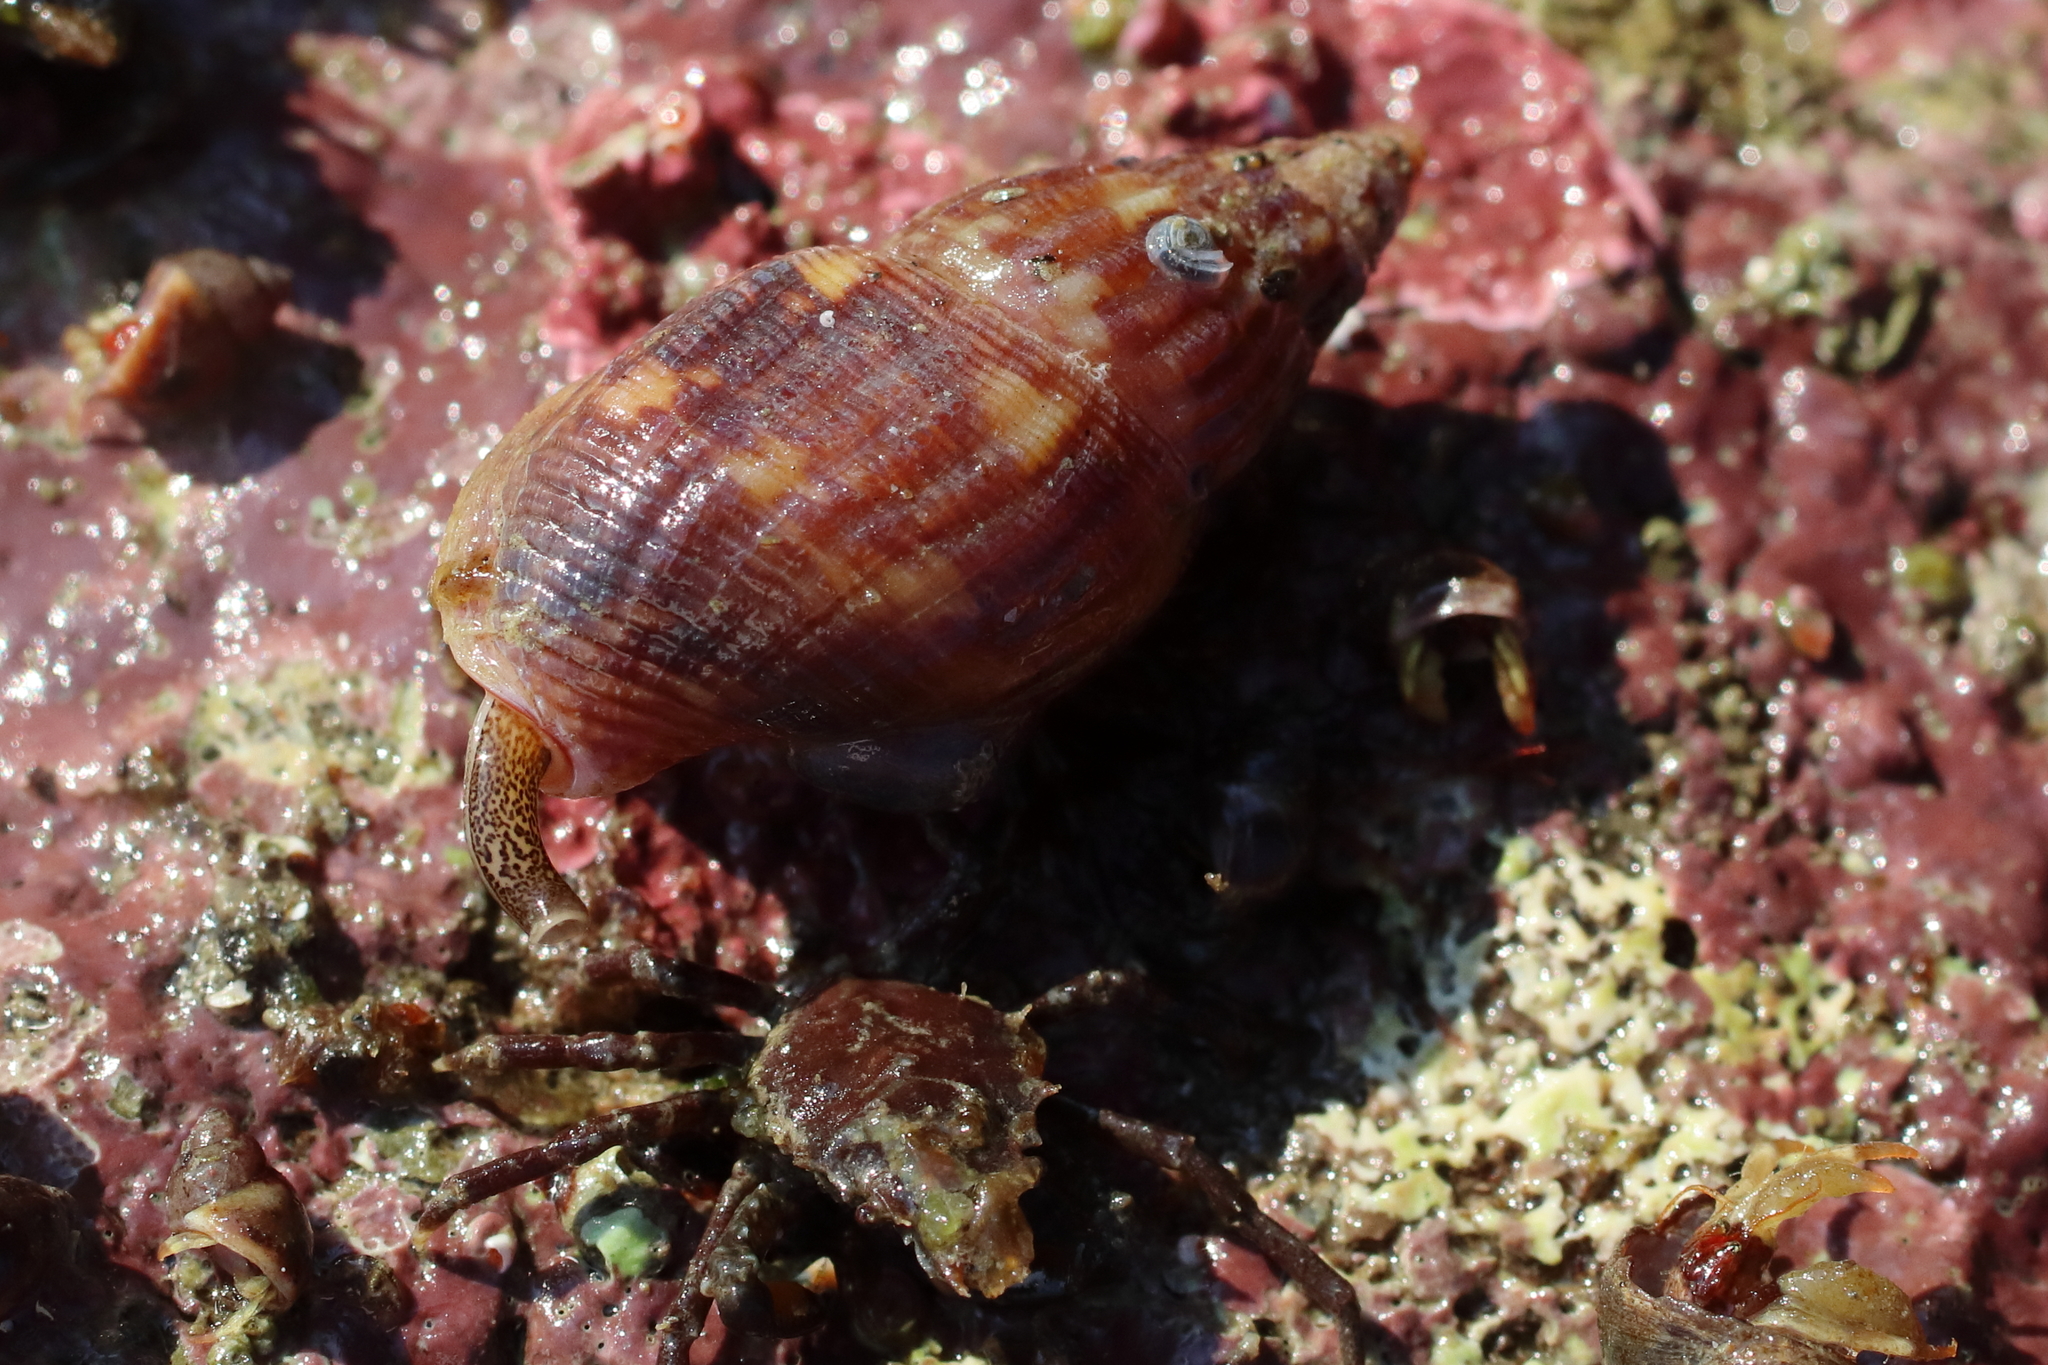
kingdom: Animalia
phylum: Mollusca
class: Gastropoda
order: Neogastropoda
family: Columbellidae
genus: Amphissa
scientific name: Amphissa columbiana
